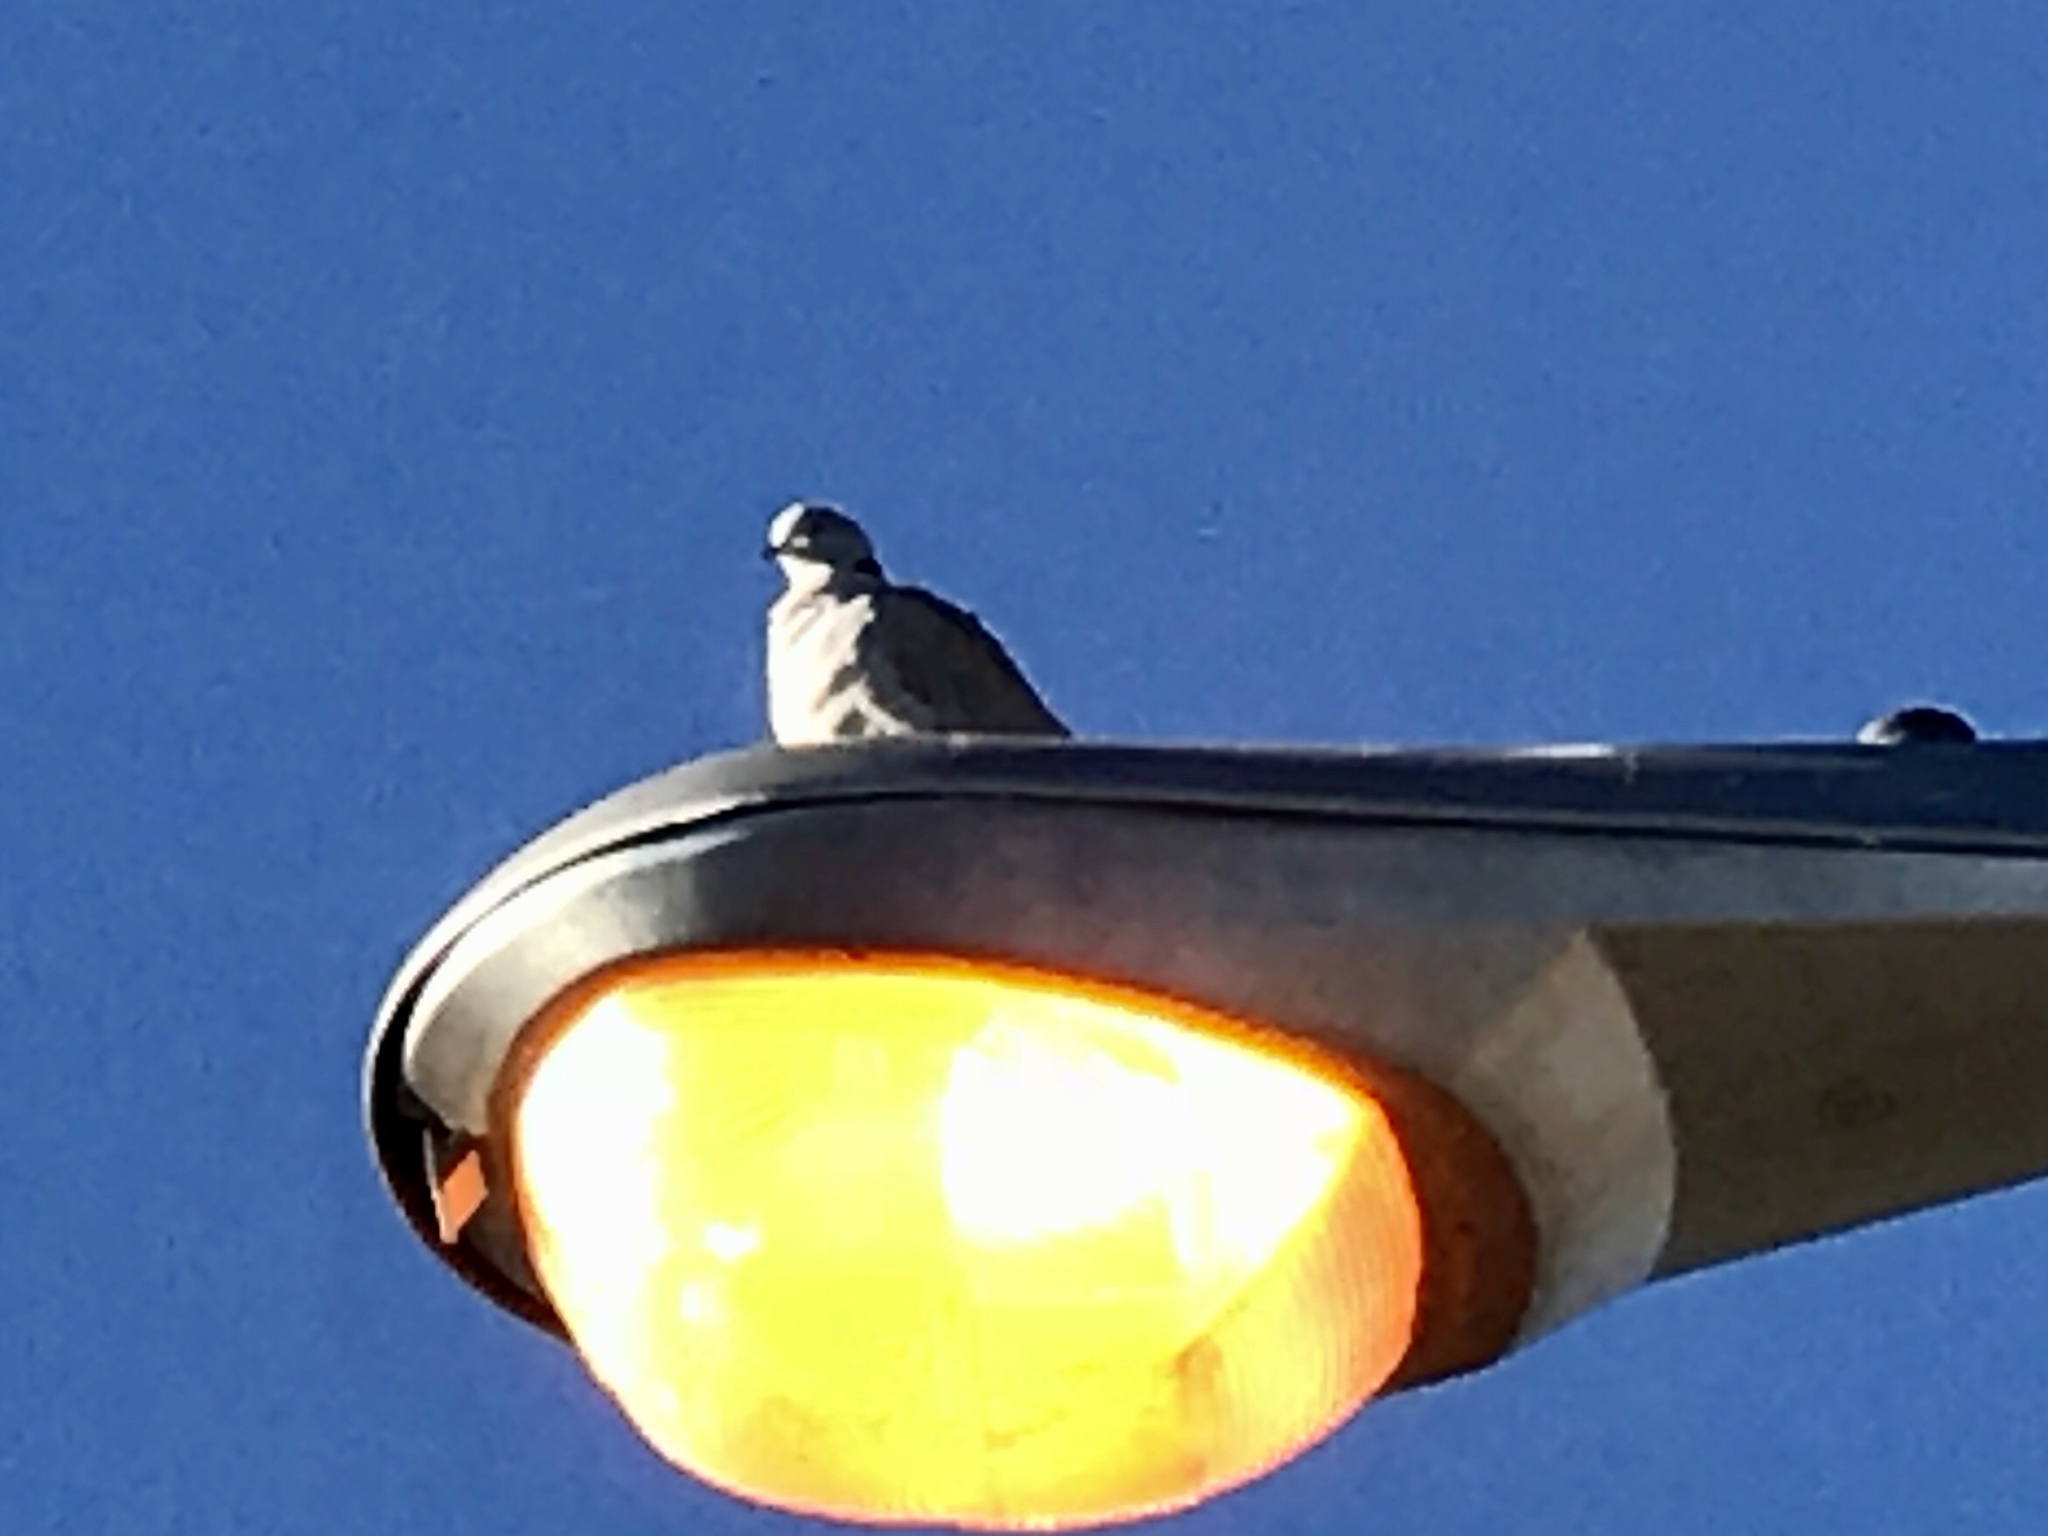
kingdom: Animalia
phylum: Chordata
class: Aves
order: Columbiformes
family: Columbidae
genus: Streptopelia
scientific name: Streptopelia decaocto
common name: Eurasian collared dove
